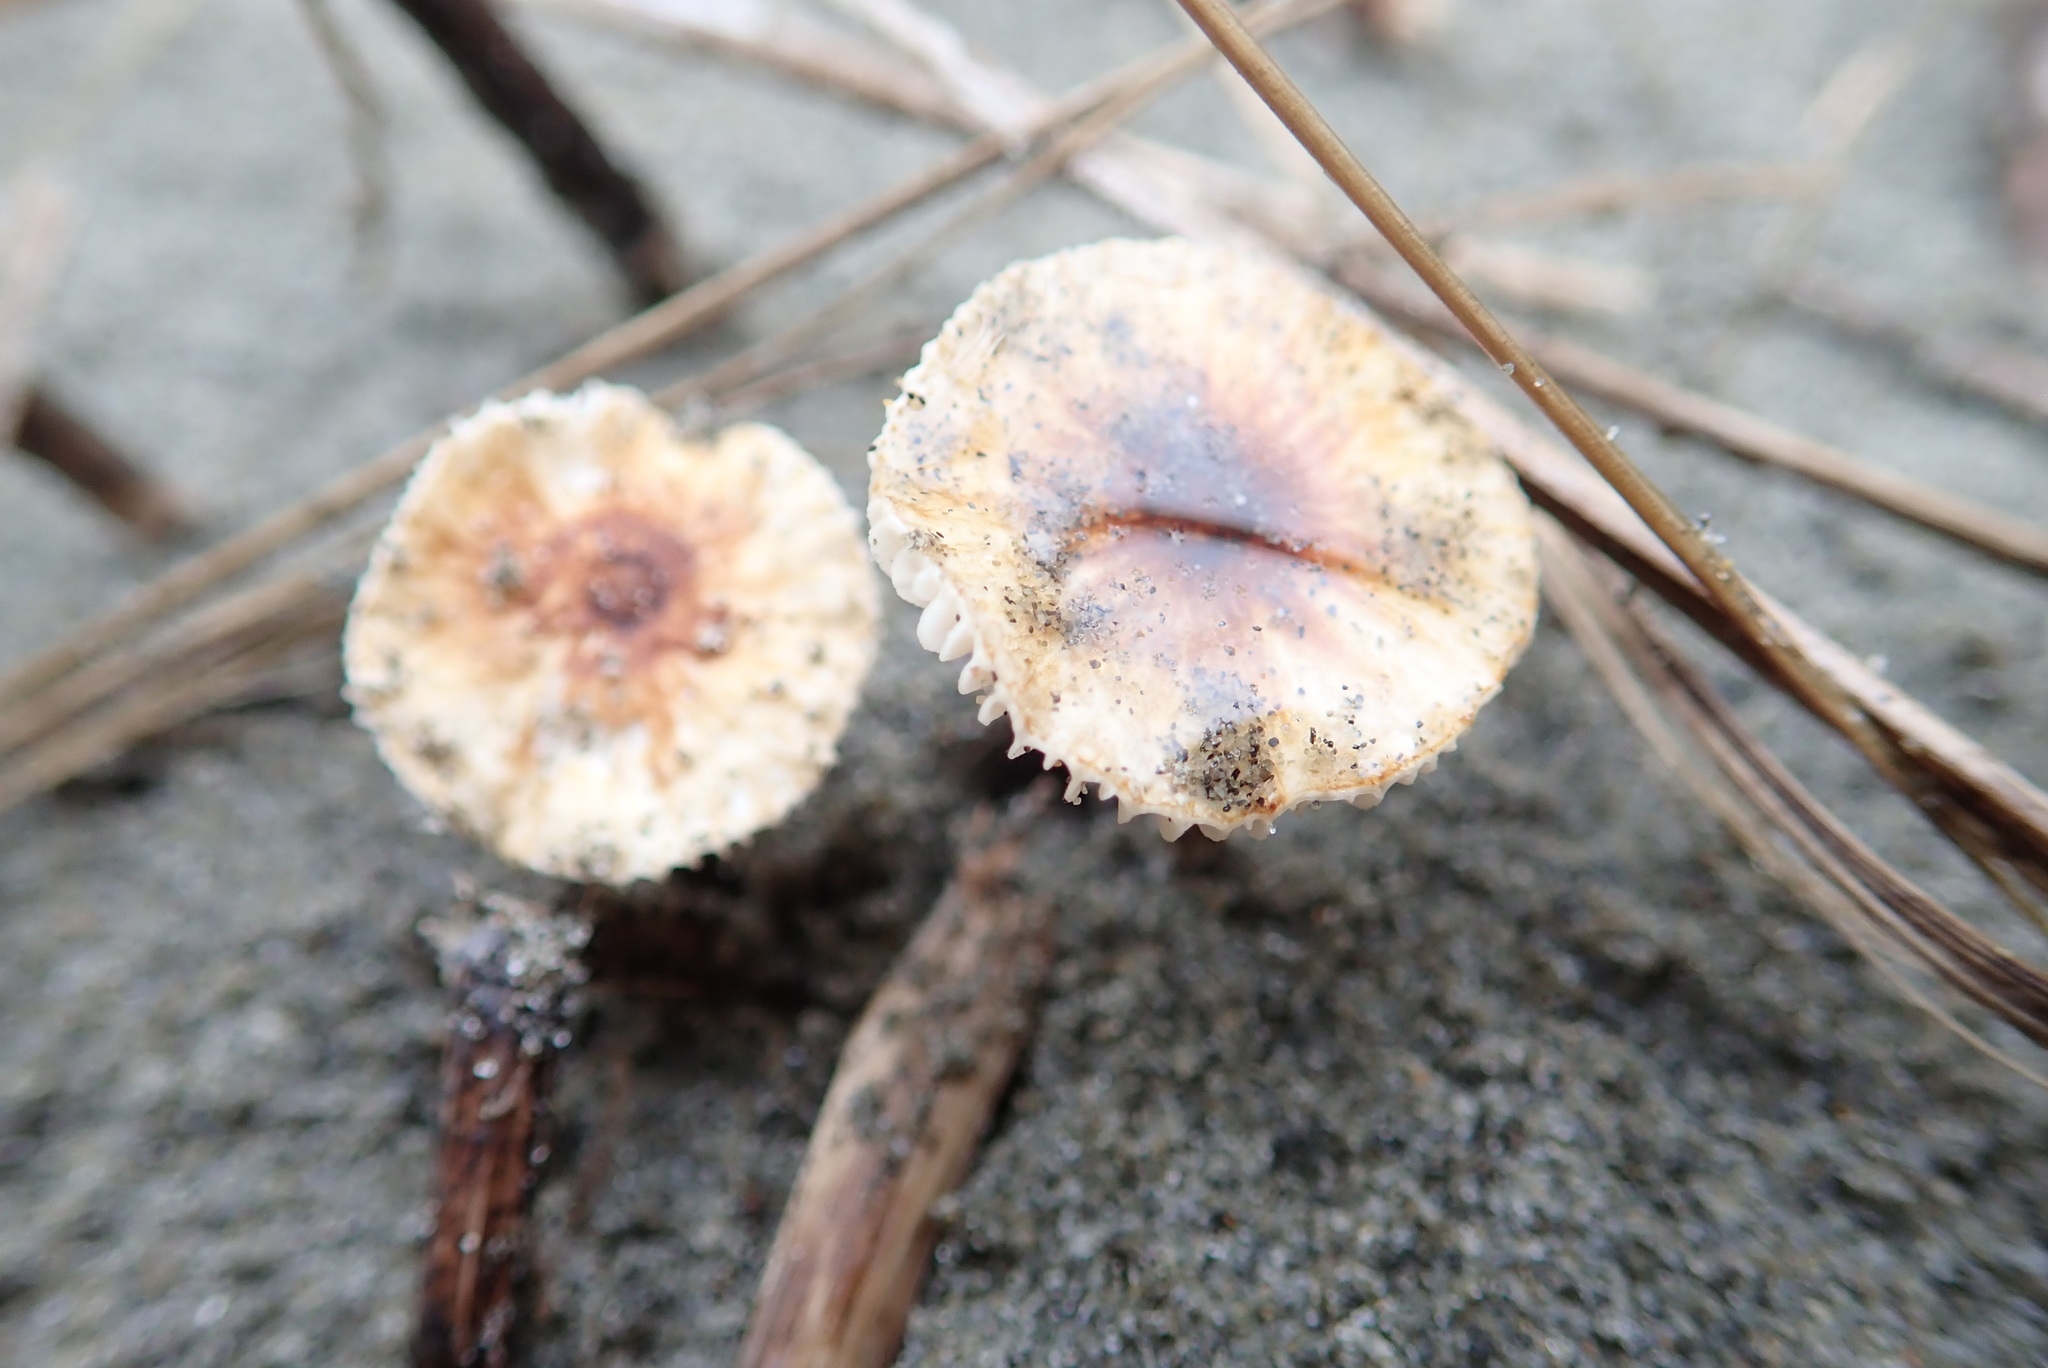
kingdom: Fungi
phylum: Basidiomycota
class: Agaricomycetes
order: Agaricales
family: Marasmiaceae
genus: Crinipellis
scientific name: Crinipellis scabella
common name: Hairy parachute
